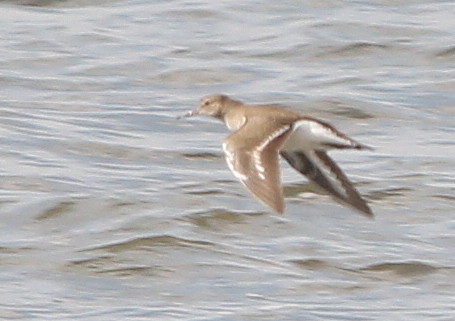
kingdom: Animalia
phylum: Chordata
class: Aves
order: Charadriiformes
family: Scolopacidae
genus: Actitis
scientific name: Actitis hypoleucos
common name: Common sandpiper
